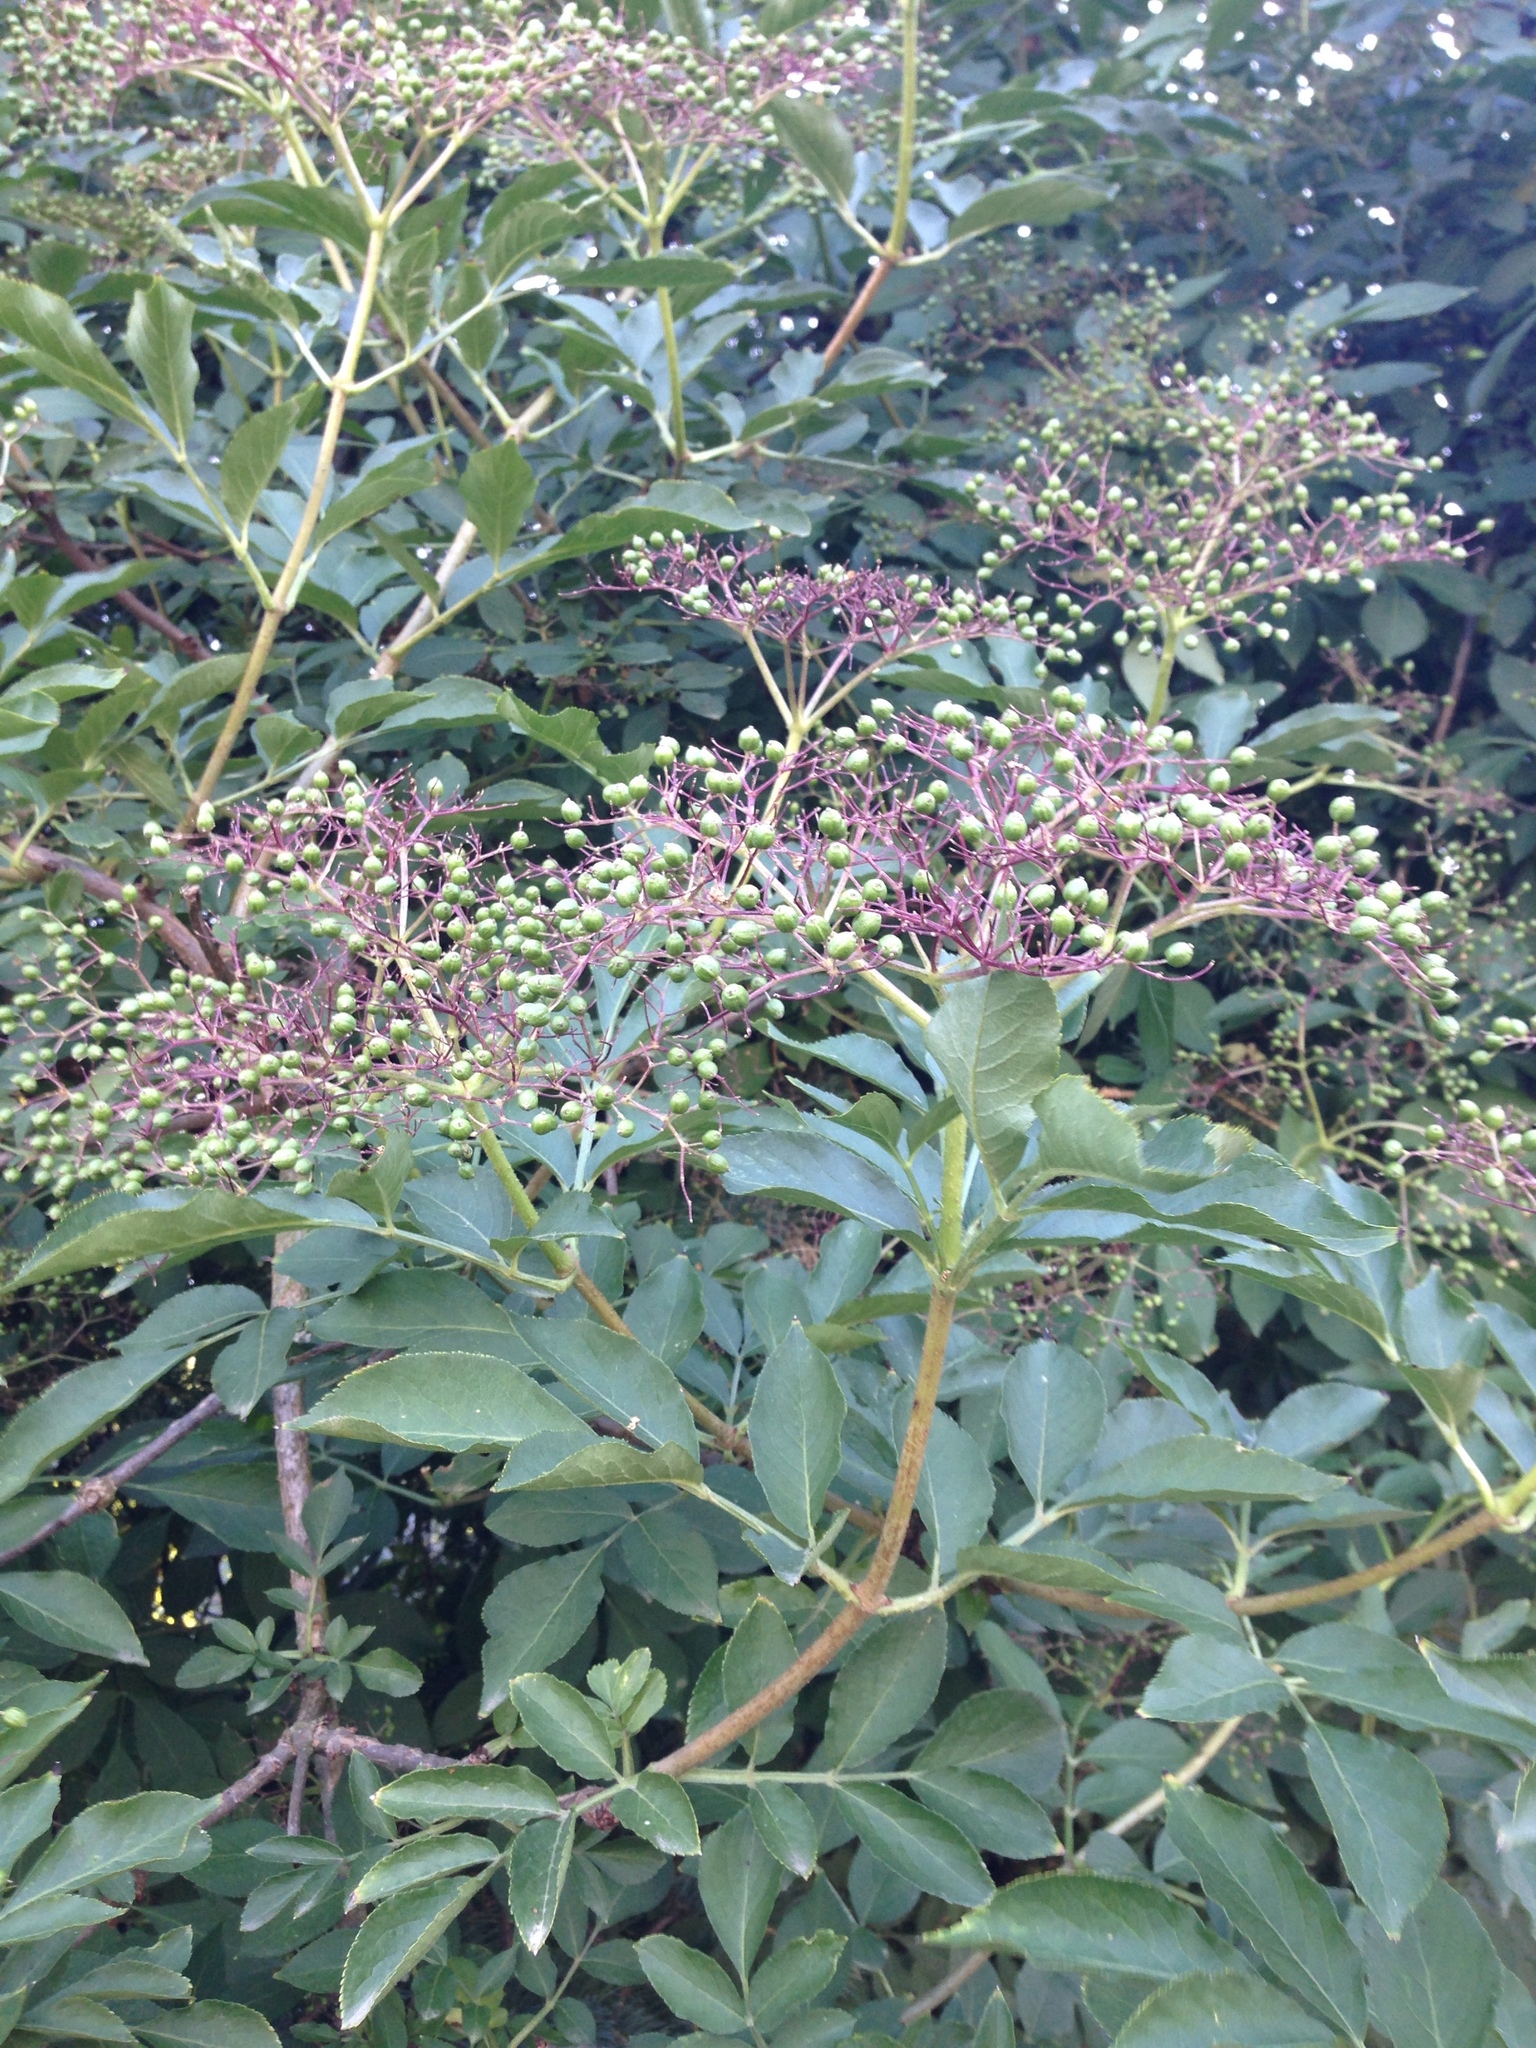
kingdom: Plantae
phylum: Tracheophyta
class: Magnoliopsida
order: Dipsacales
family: Viburnaceae
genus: Sambucus
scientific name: Sambucus nigra
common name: Elder
